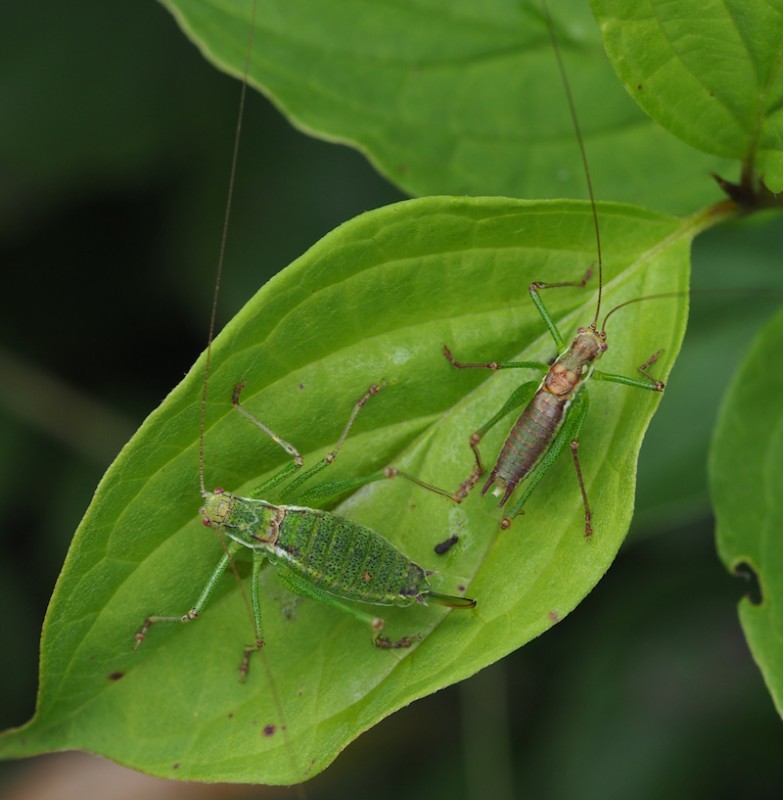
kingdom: Animalia
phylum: Arthropoda
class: Insecta
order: Orthoptera
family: Tettigoniidae
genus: Leptophyes
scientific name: Leptophyes albovittata
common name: Striped bush-cricket
